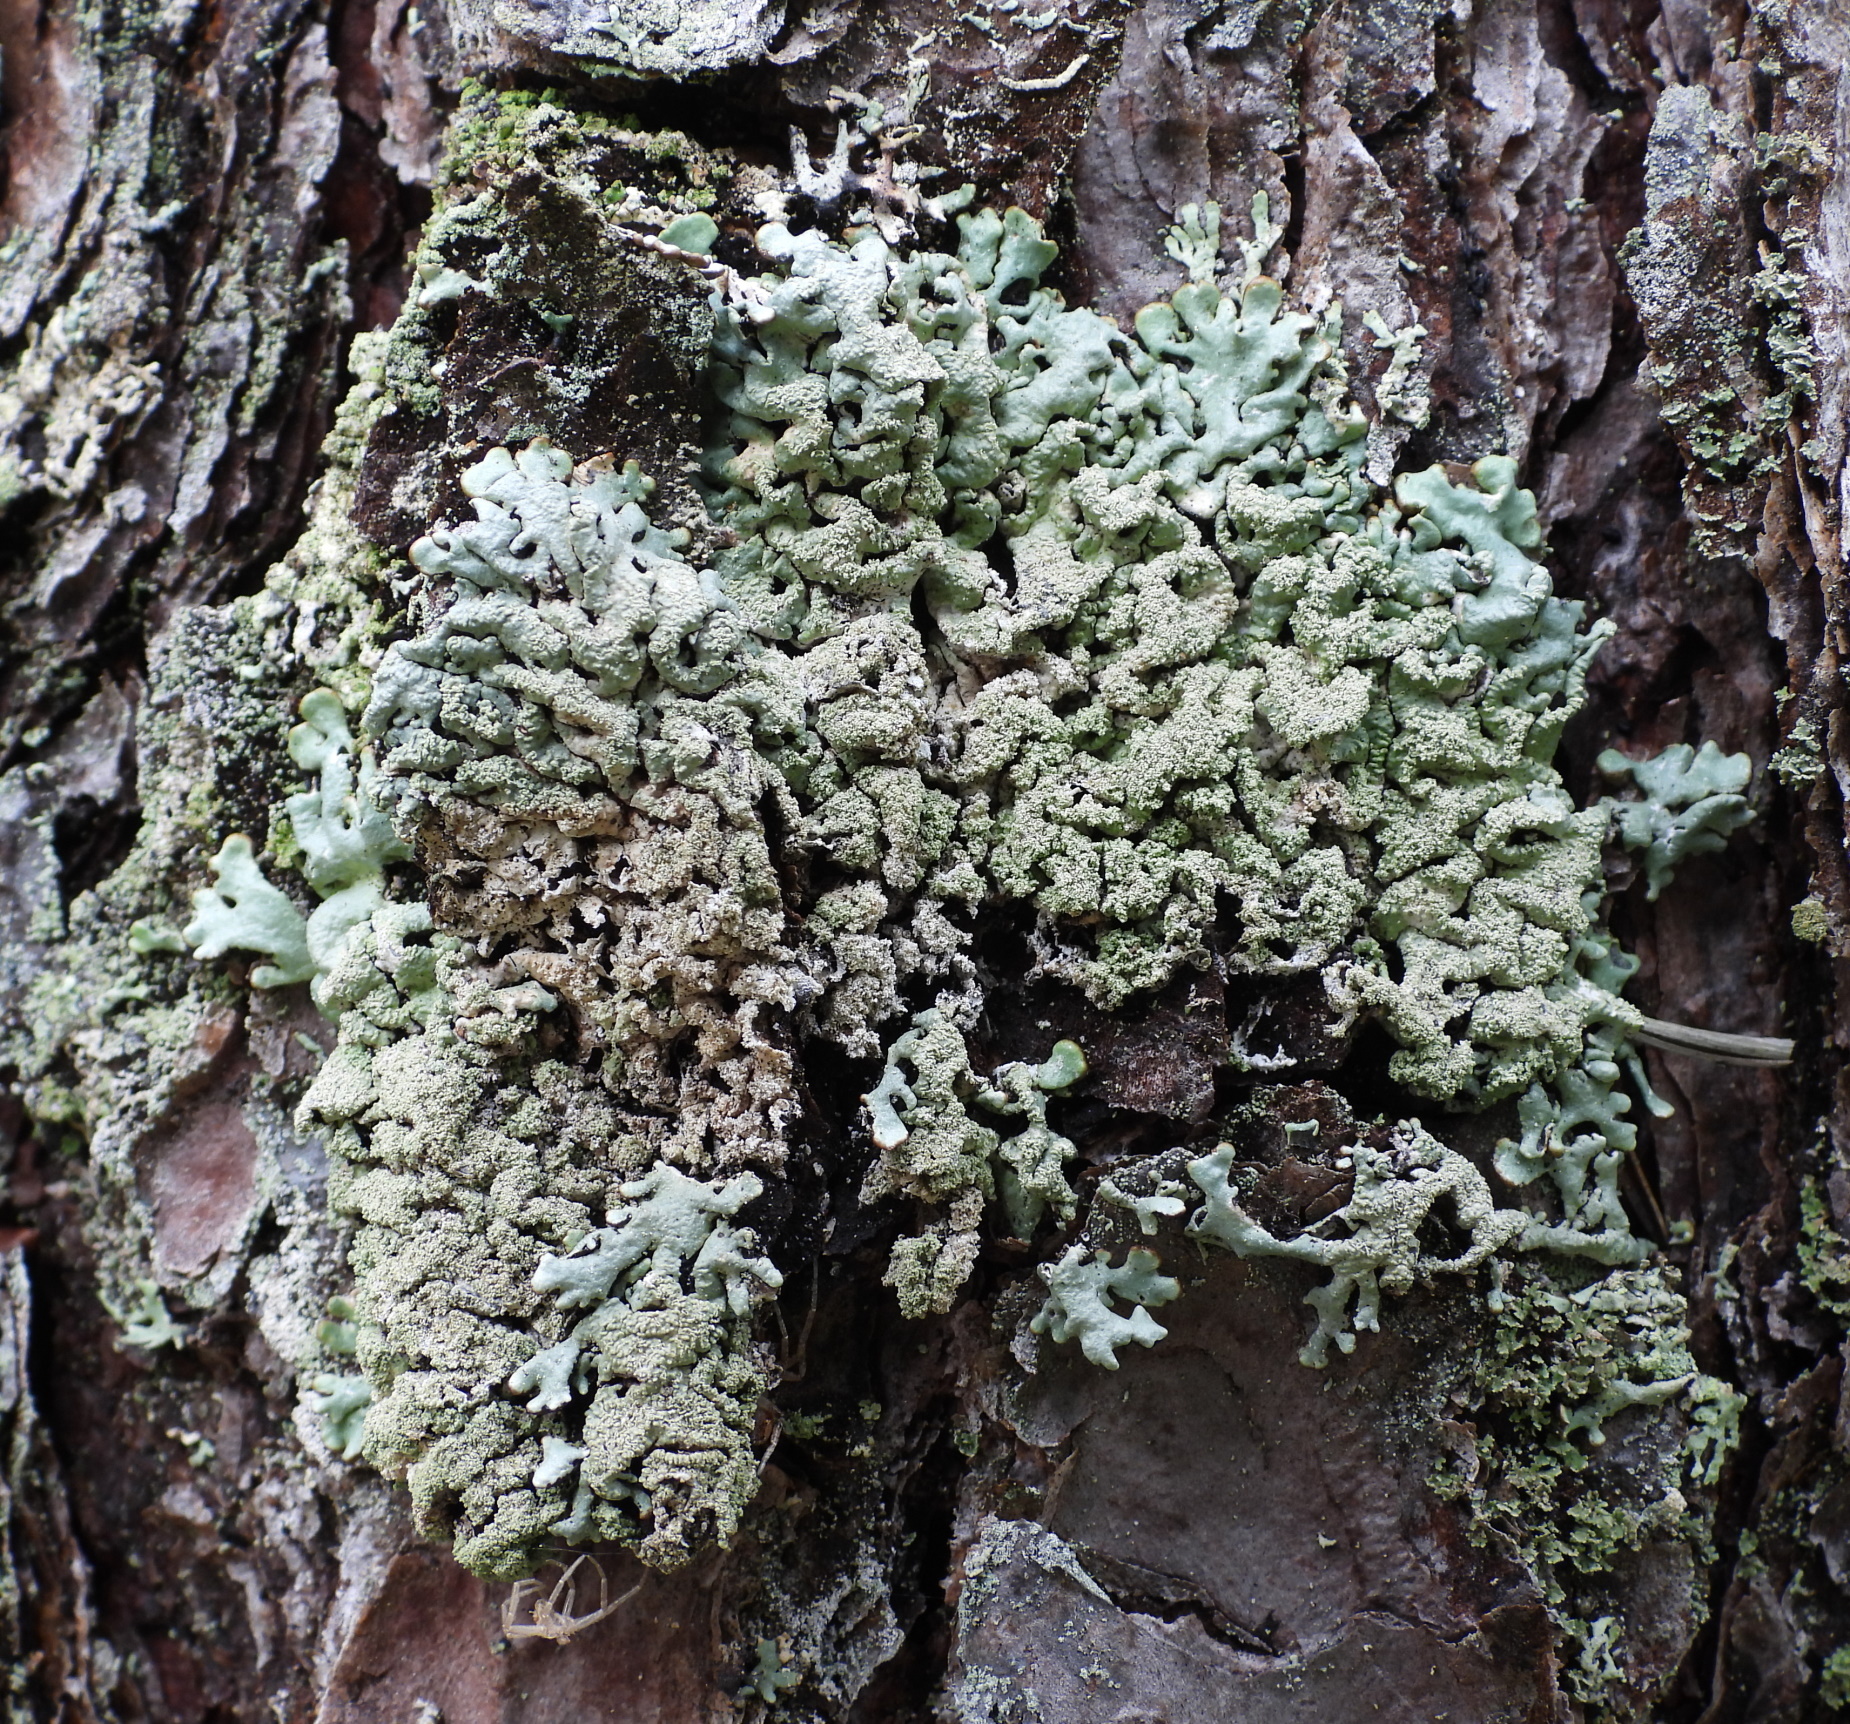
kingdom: Fungi
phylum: Ascomycota
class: Lecanoromycetes
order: Lecanorales
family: Parmeliaceae
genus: Hypogymnia
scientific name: Hypogymnia farinacea
